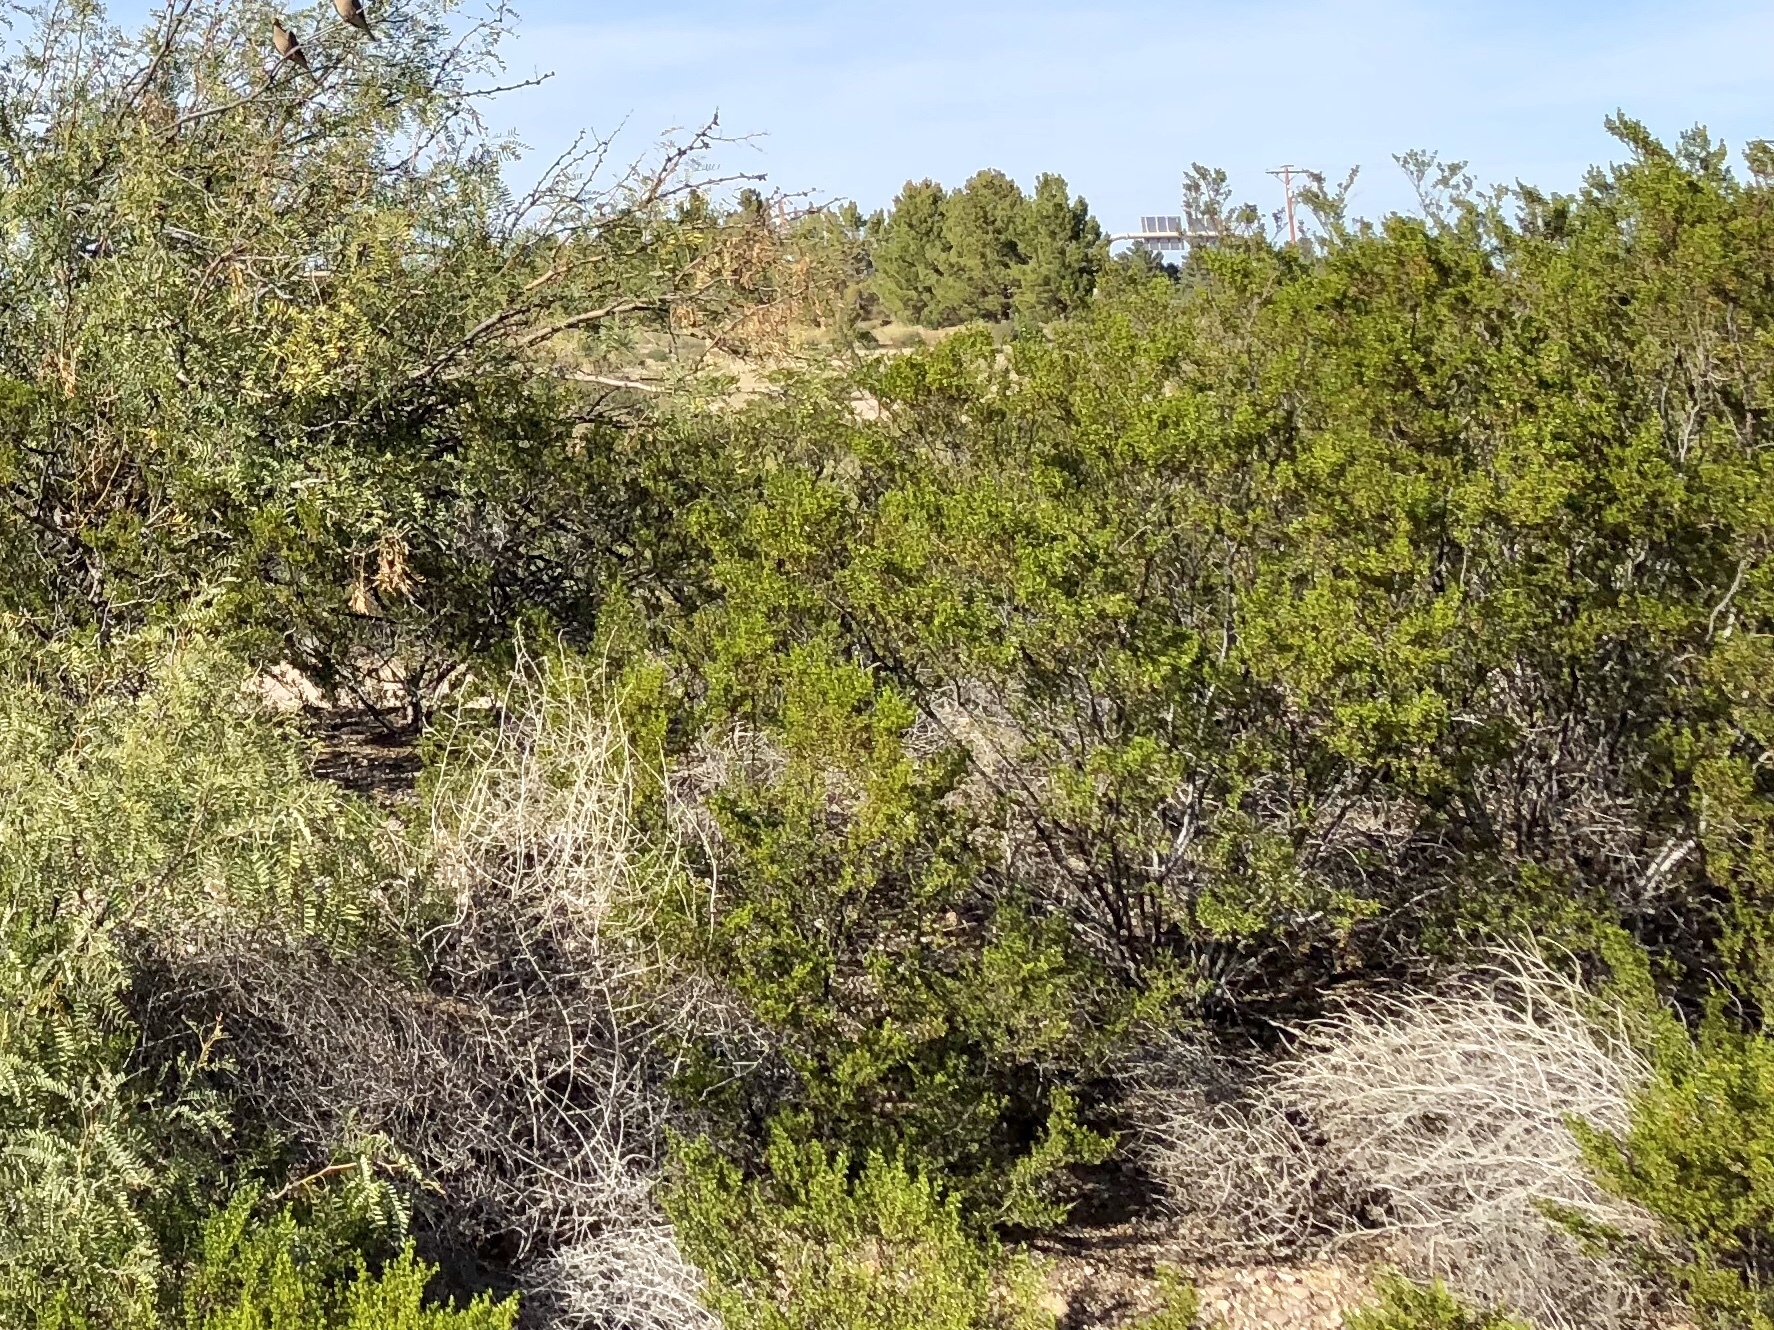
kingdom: Plantae
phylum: Tracheophyta
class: Magnoliopsida
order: Zygophyllales
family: Zygophyllaceae
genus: Larrea
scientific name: Larrea tridentata
